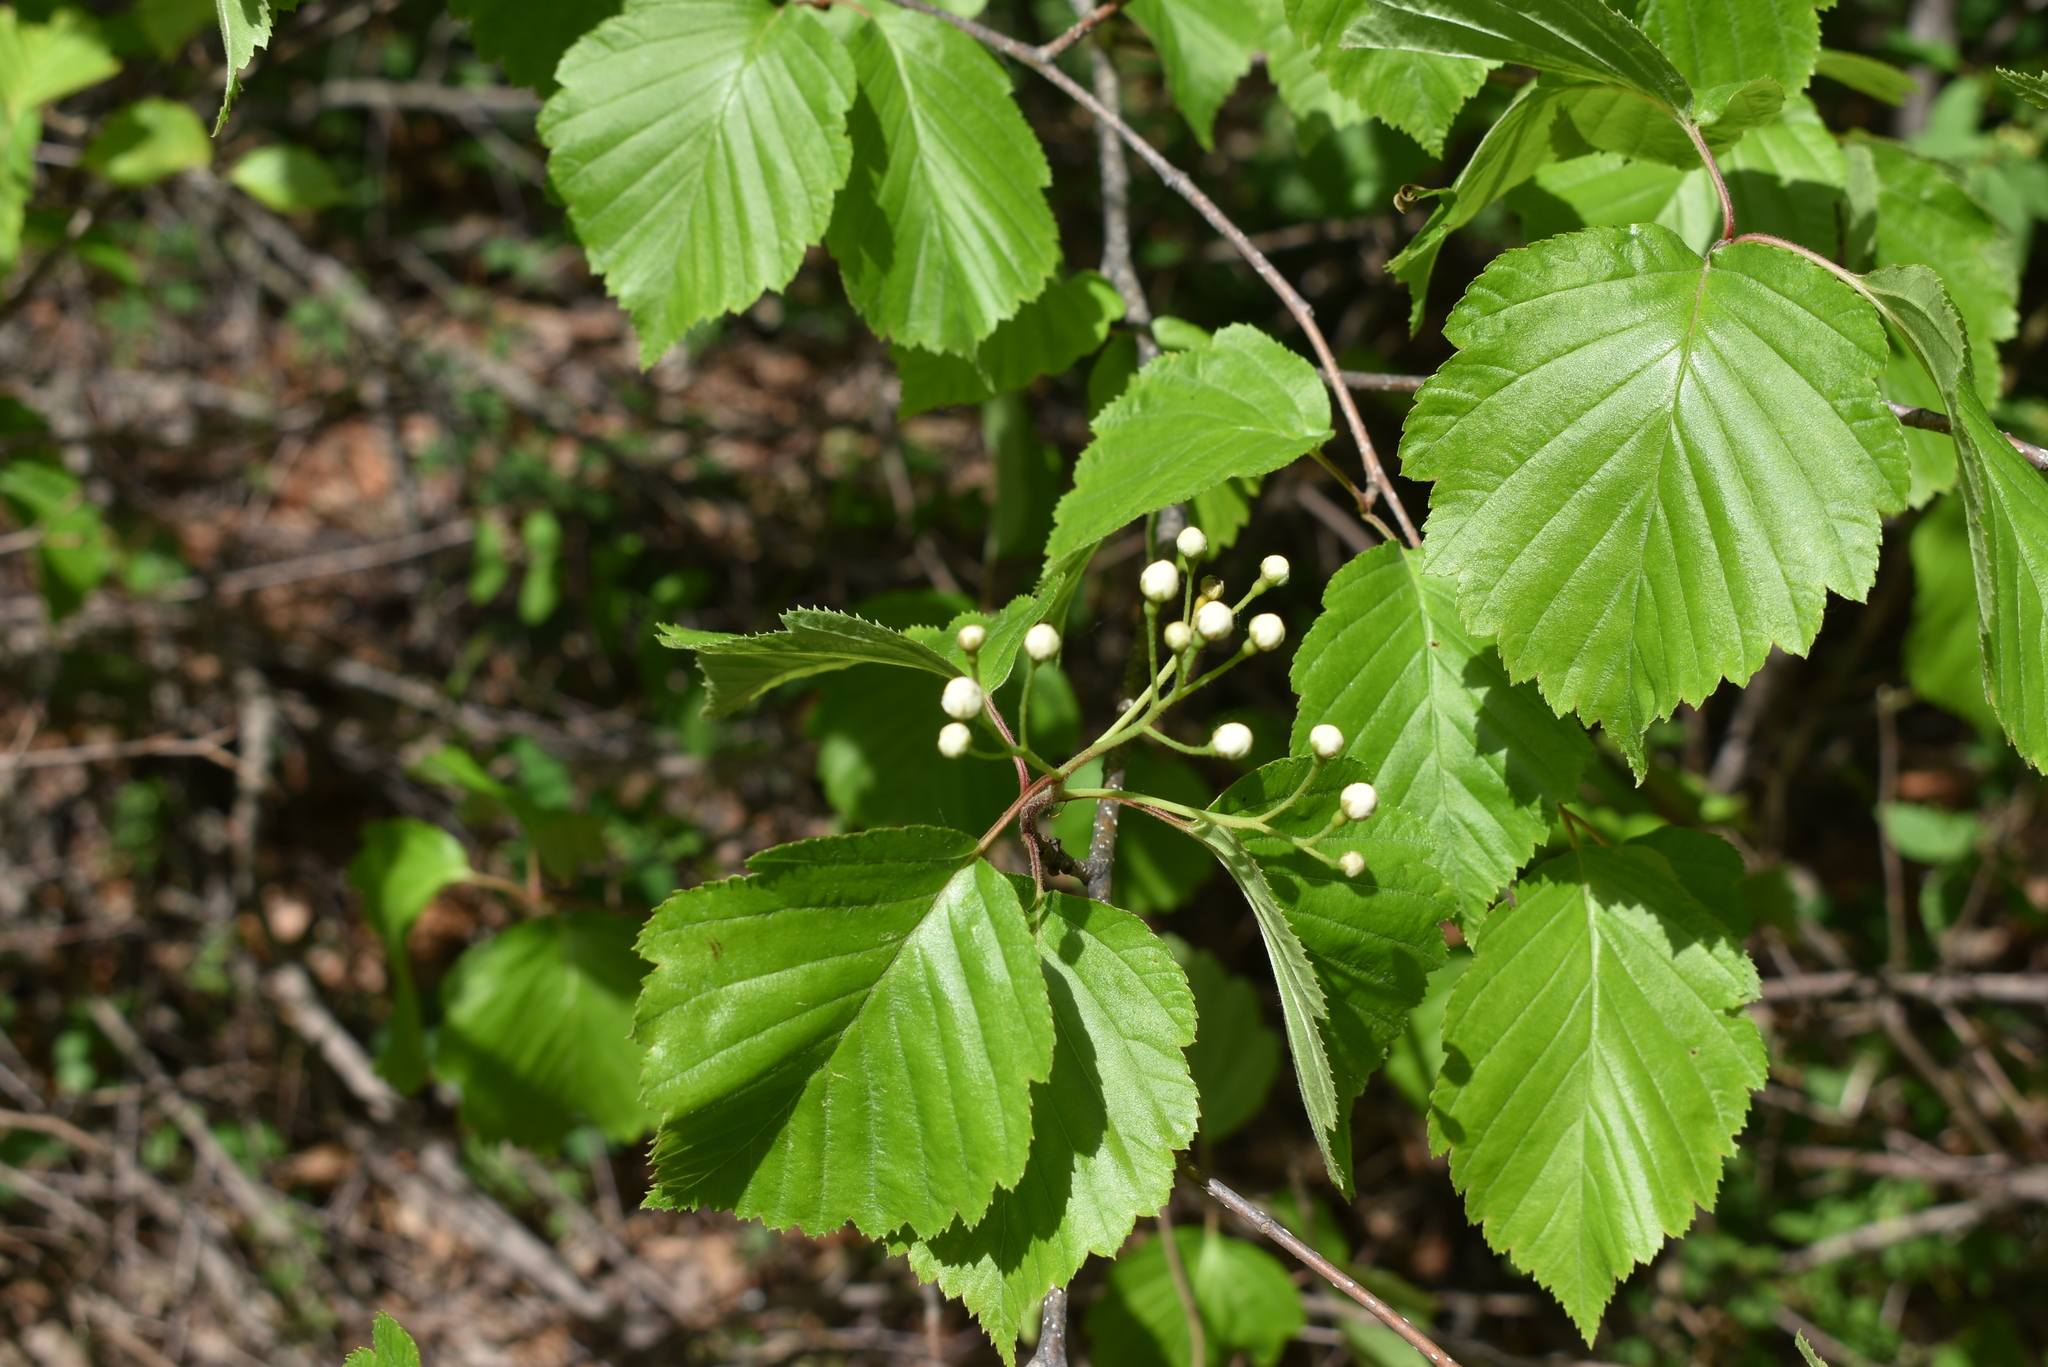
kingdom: Plantae
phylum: Tracheophyta
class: Magnoliopsida
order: Rosales
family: Rosaceae
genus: Sorbus
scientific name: Sorbus alnifolia
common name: Mountain-ash
